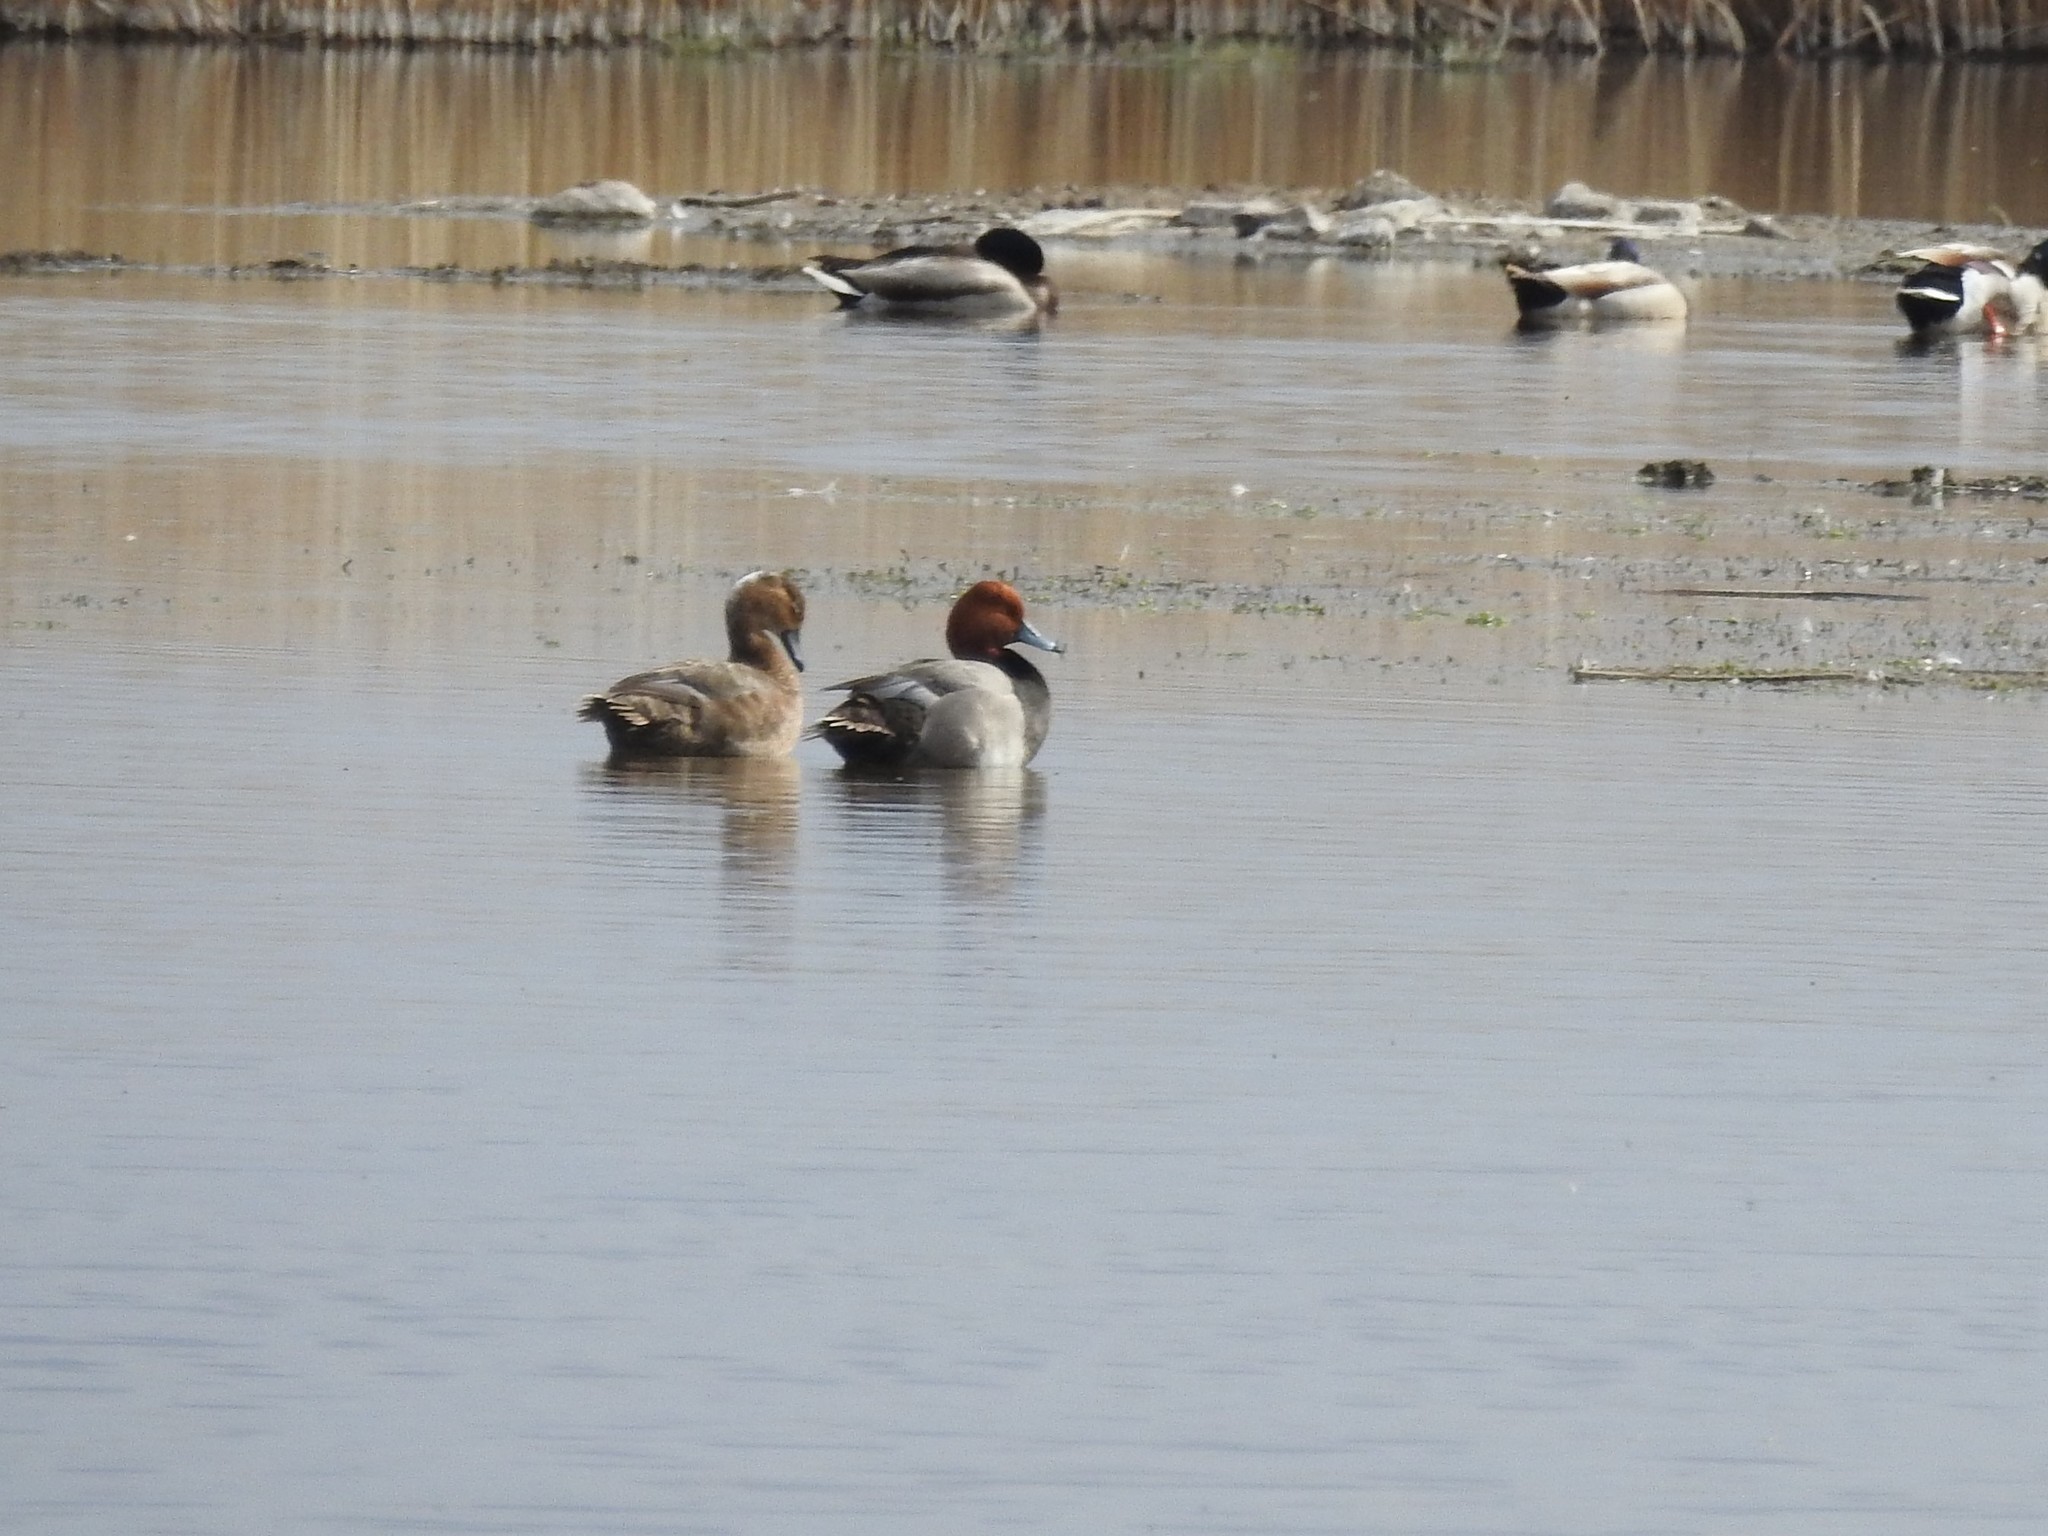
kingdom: Animalia
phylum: Chordata
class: Aves
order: Anseriformes
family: Anatidae
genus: Aythya
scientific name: Aythya americana
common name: Redhead
